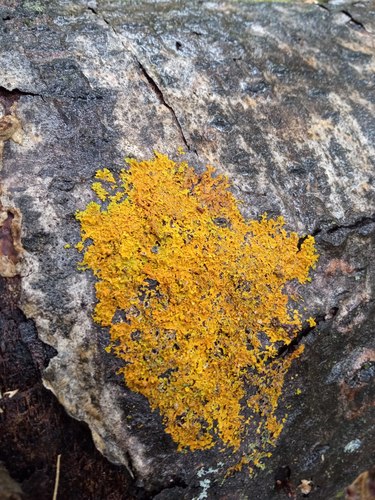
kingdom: Fungi
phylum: Ascomycota
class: Lecanoromycetes
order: Teloschistales
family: Teloschistaceae
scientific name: Teloschistaceae
